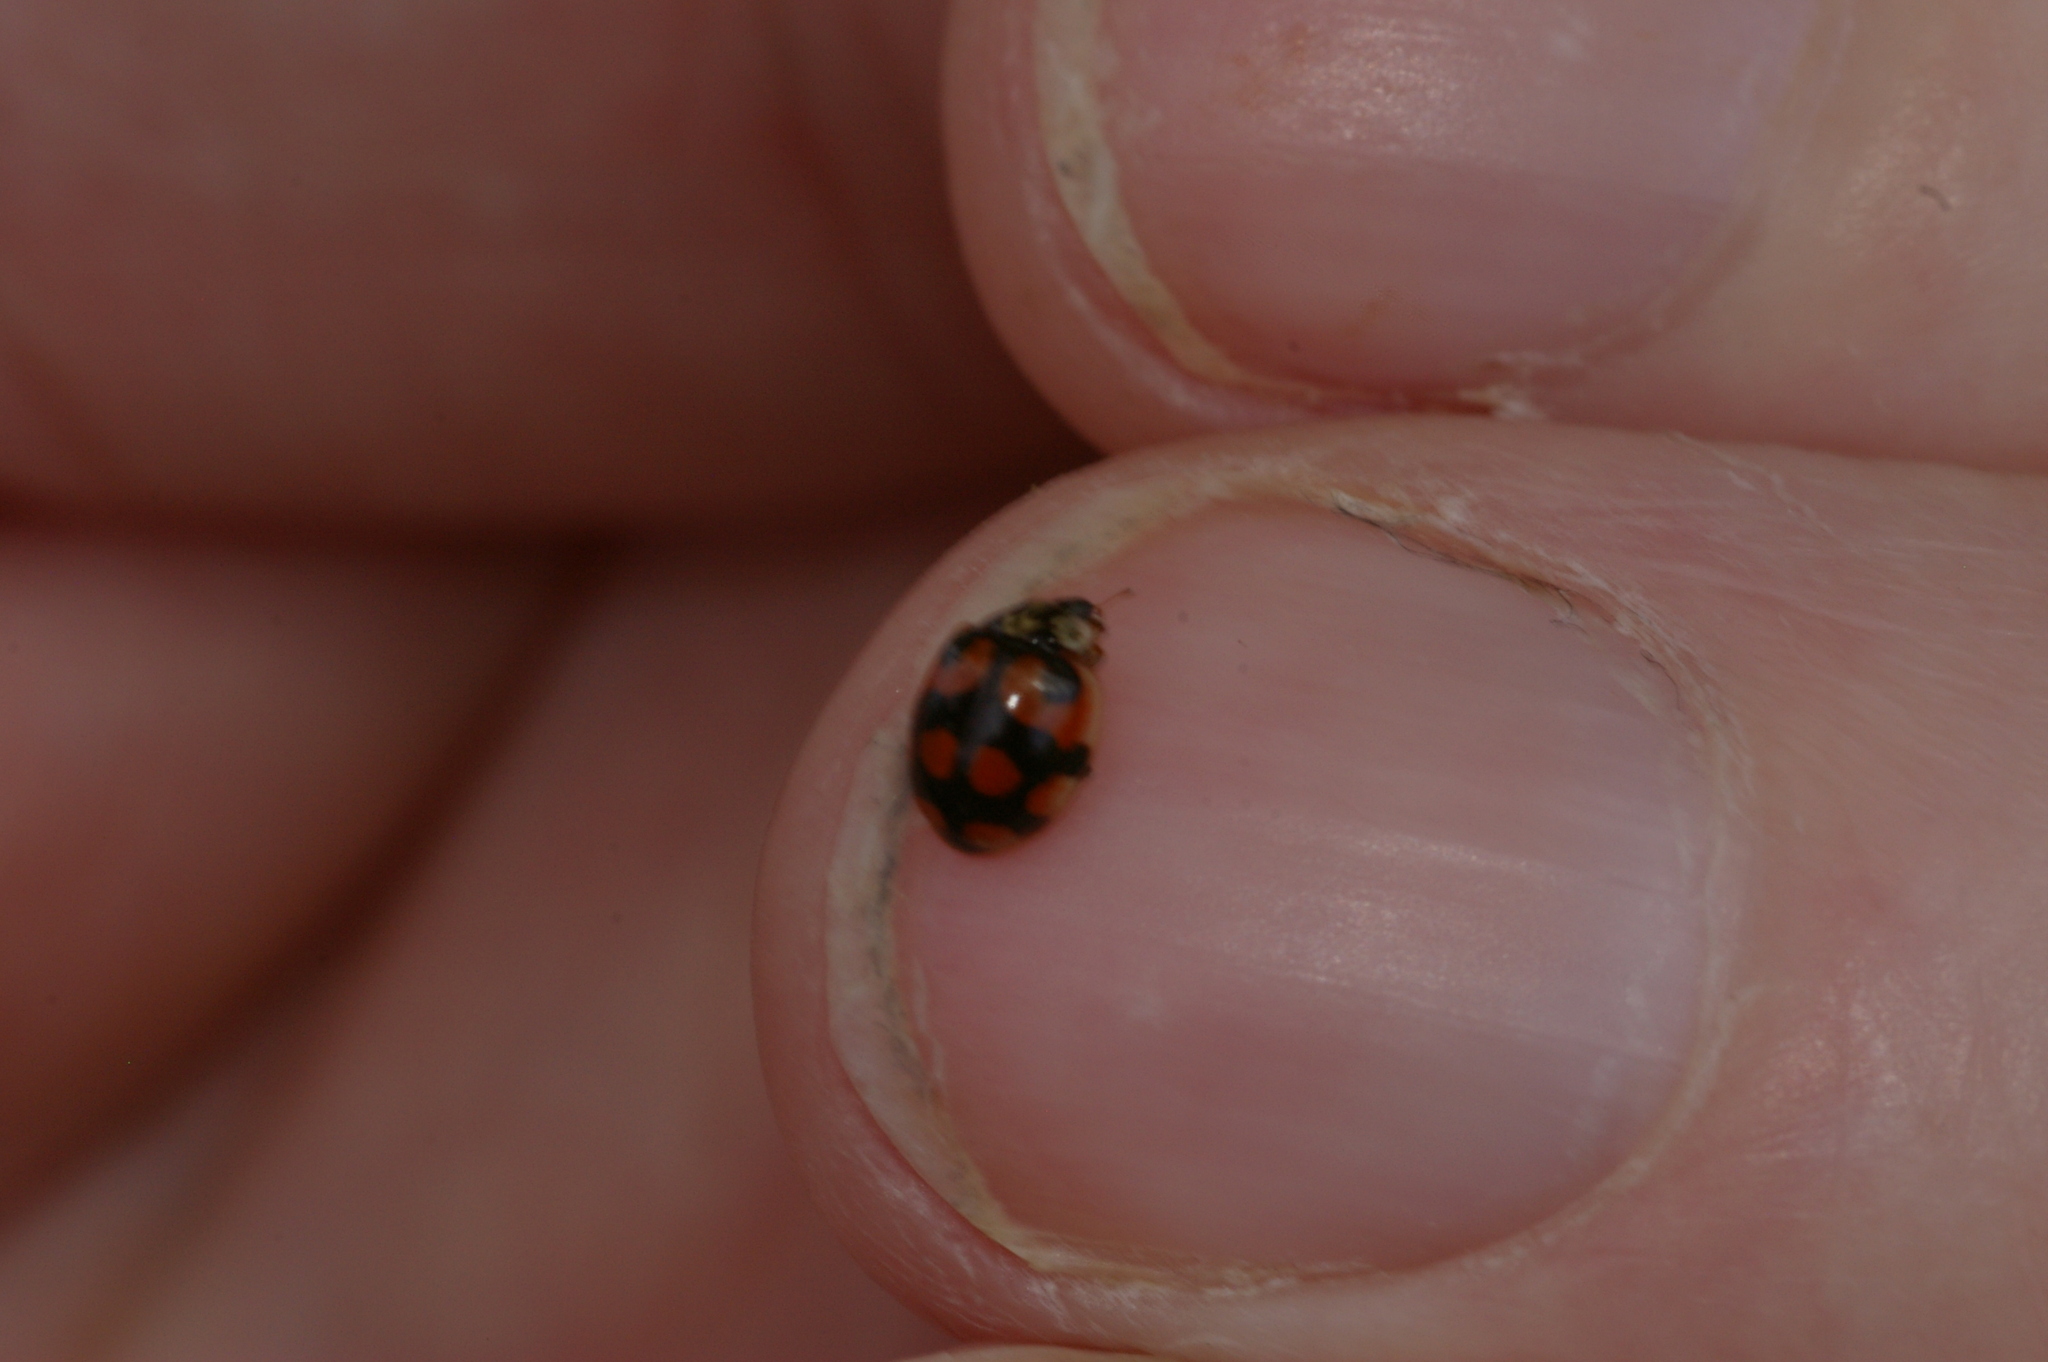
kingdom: Animalia
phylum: Arthropoda
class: Insecta
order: Coleoptera
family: Coccinellidae
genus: Adalia
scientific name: Adalia decempunctata
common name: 10-spot ladybird
